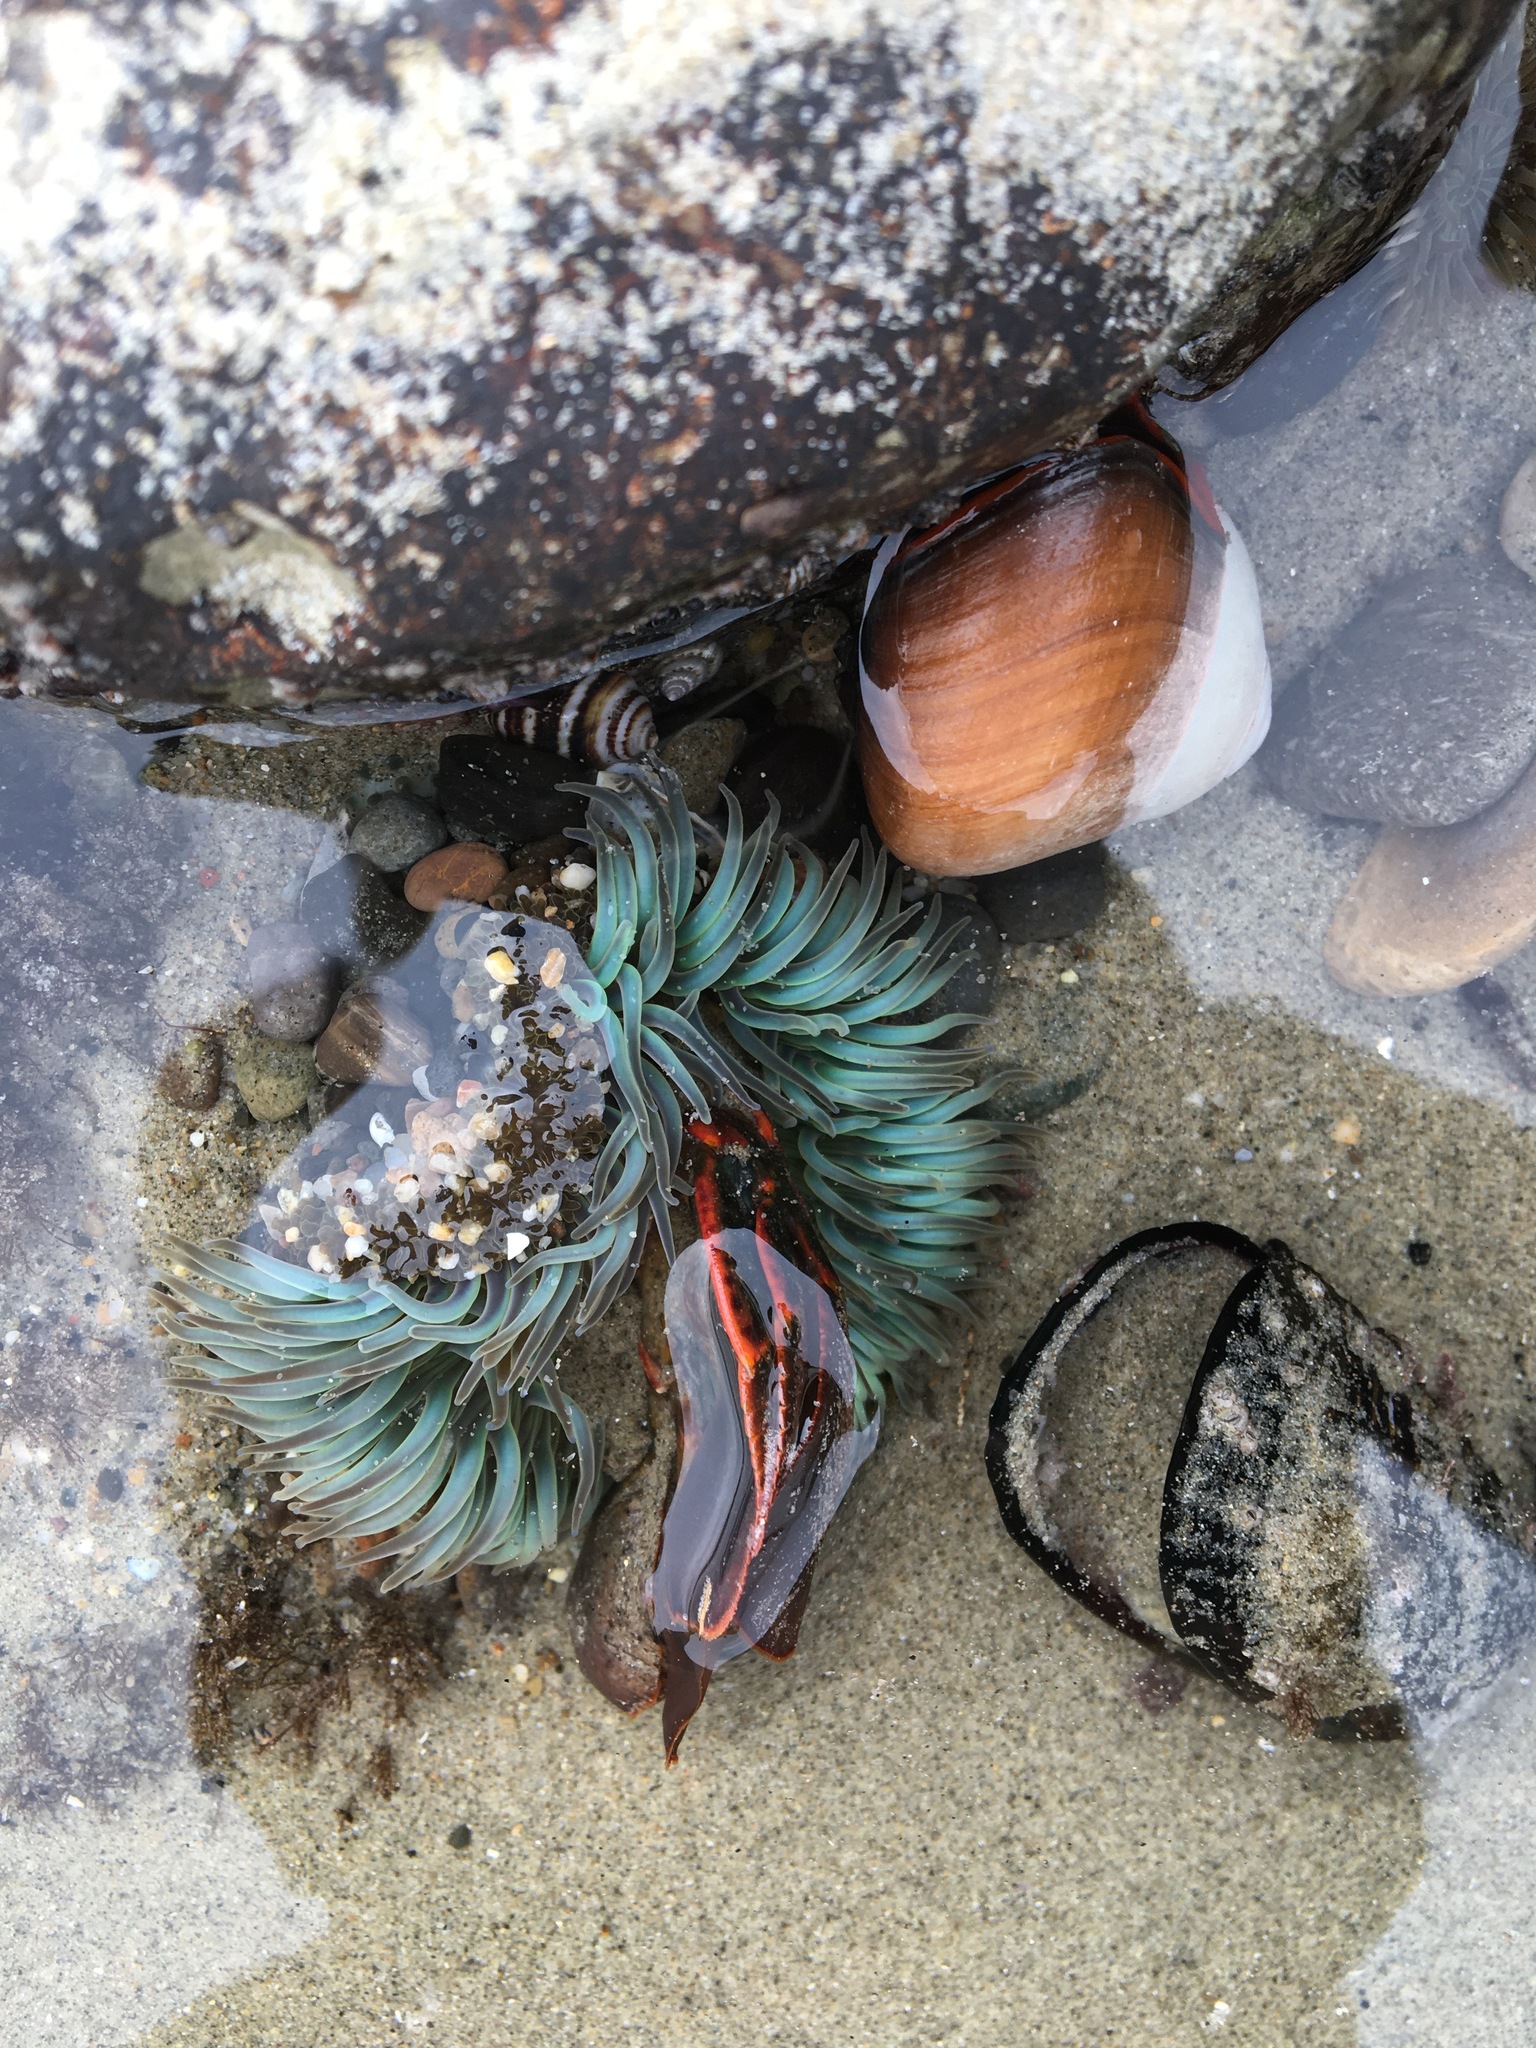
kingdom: Animalia
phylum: Cnidaria
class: Anthozoa
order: Actiniaria
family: Actiniidae
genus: Anthopleura
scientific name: Anthopleura sola
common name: Sun anemone
